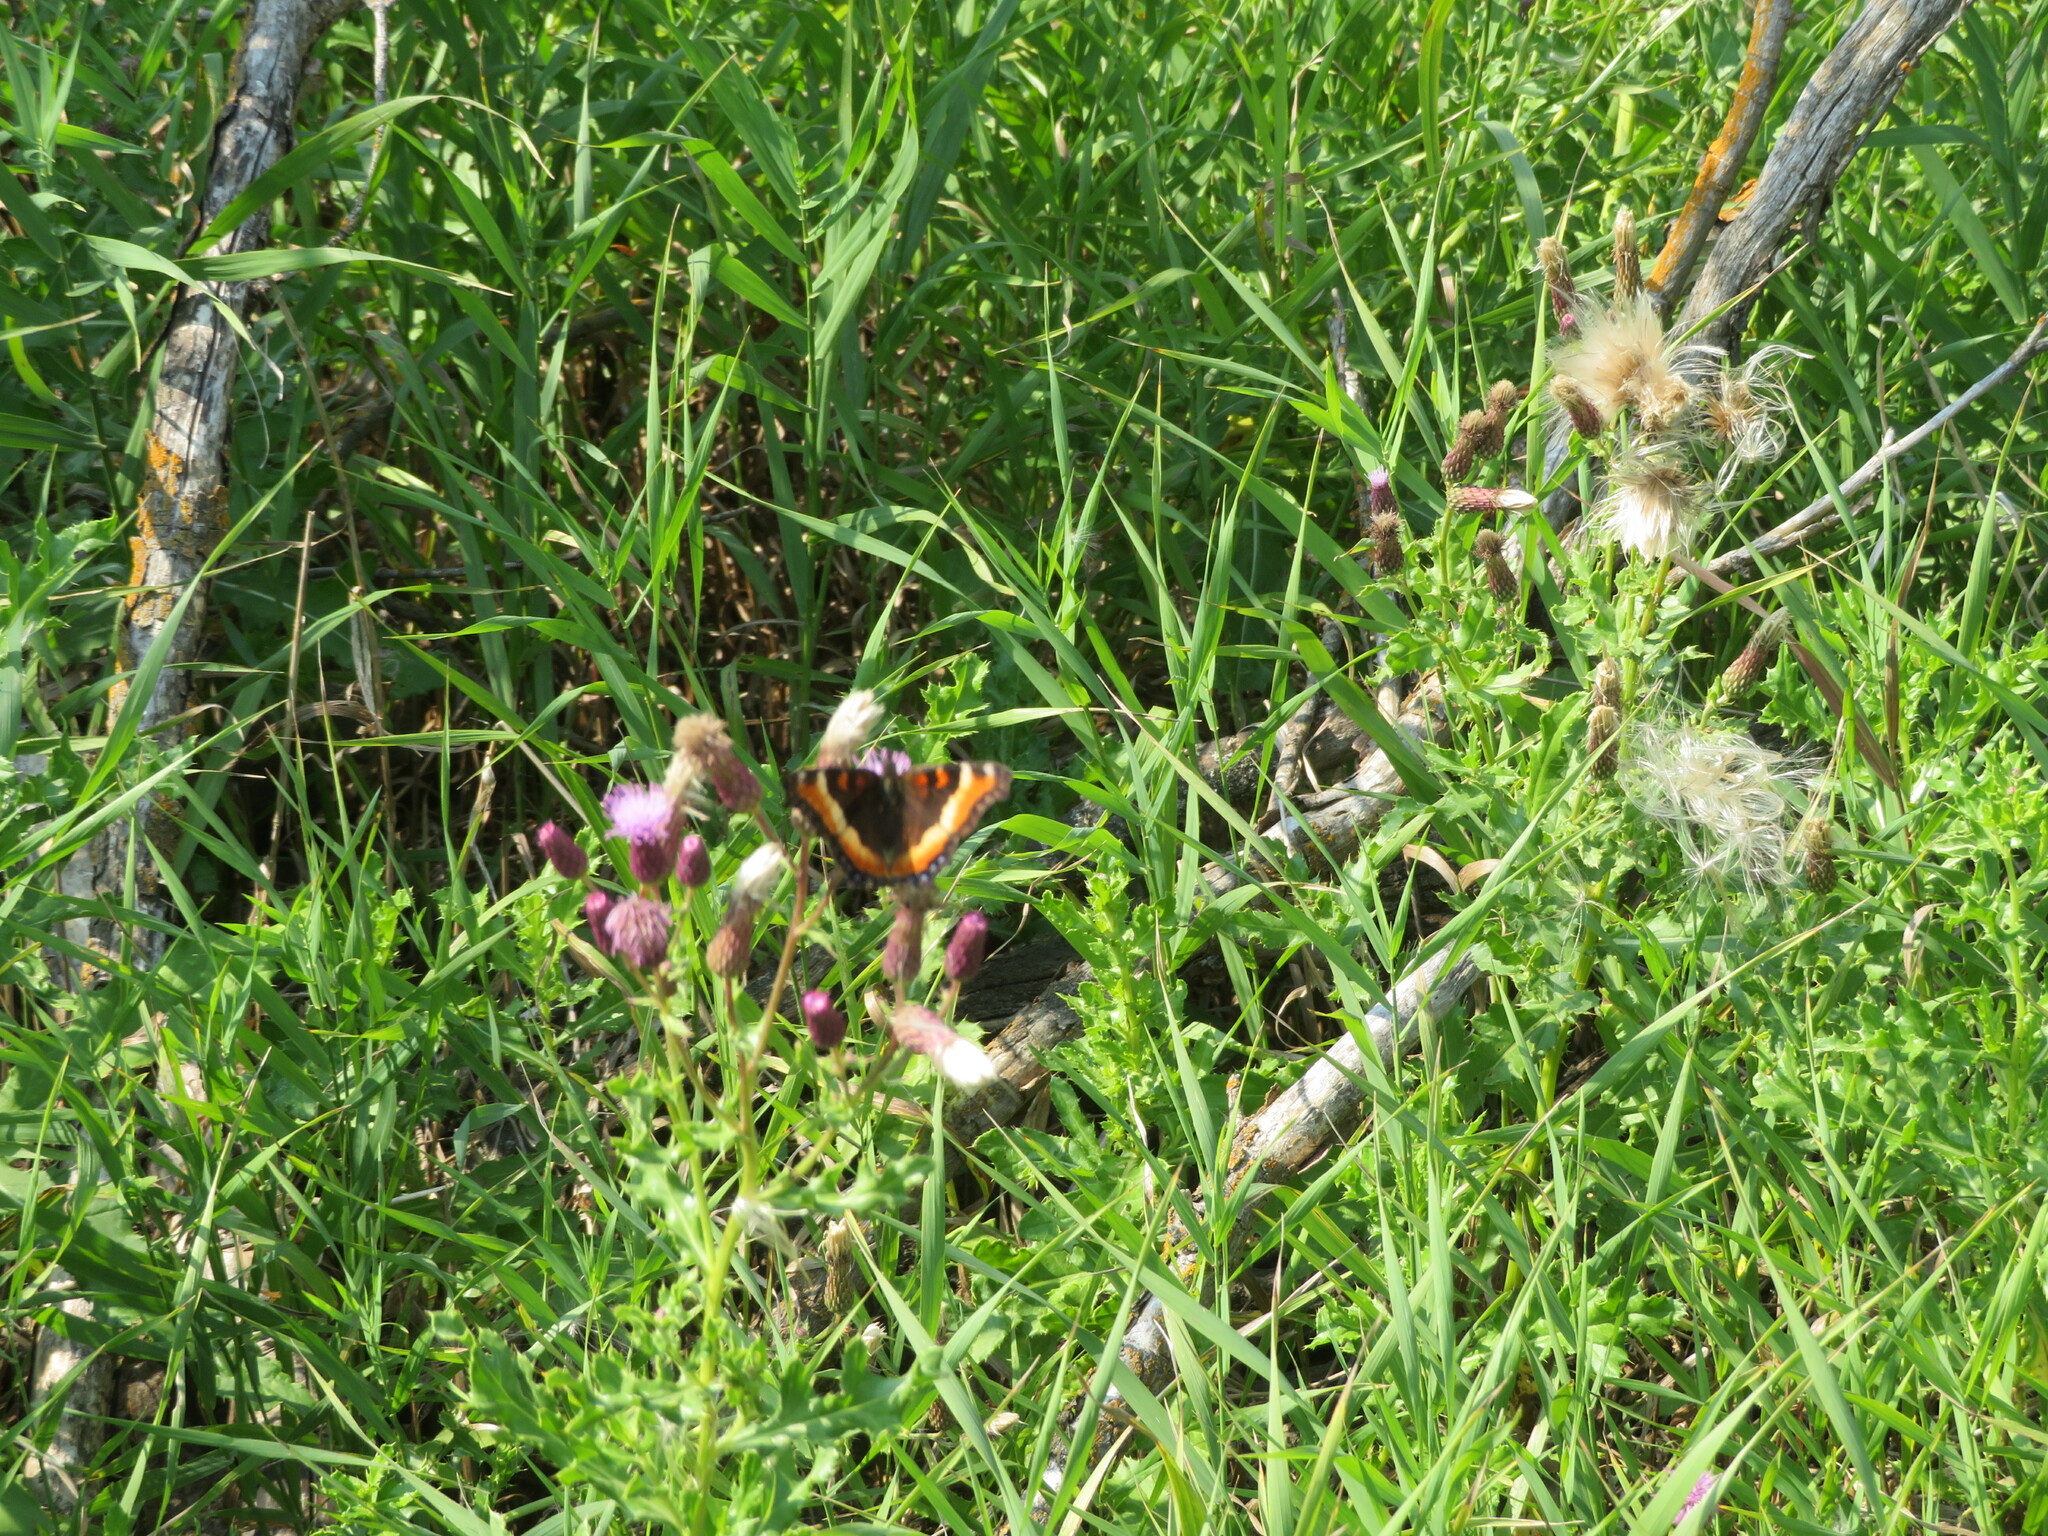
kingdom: Animalia
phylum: Arthropoda
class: Insecta
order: Lepidoptera
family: Nymphalidae
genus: Aglais
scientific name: Aglais milberti
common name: Milbert's tortoiseshell
